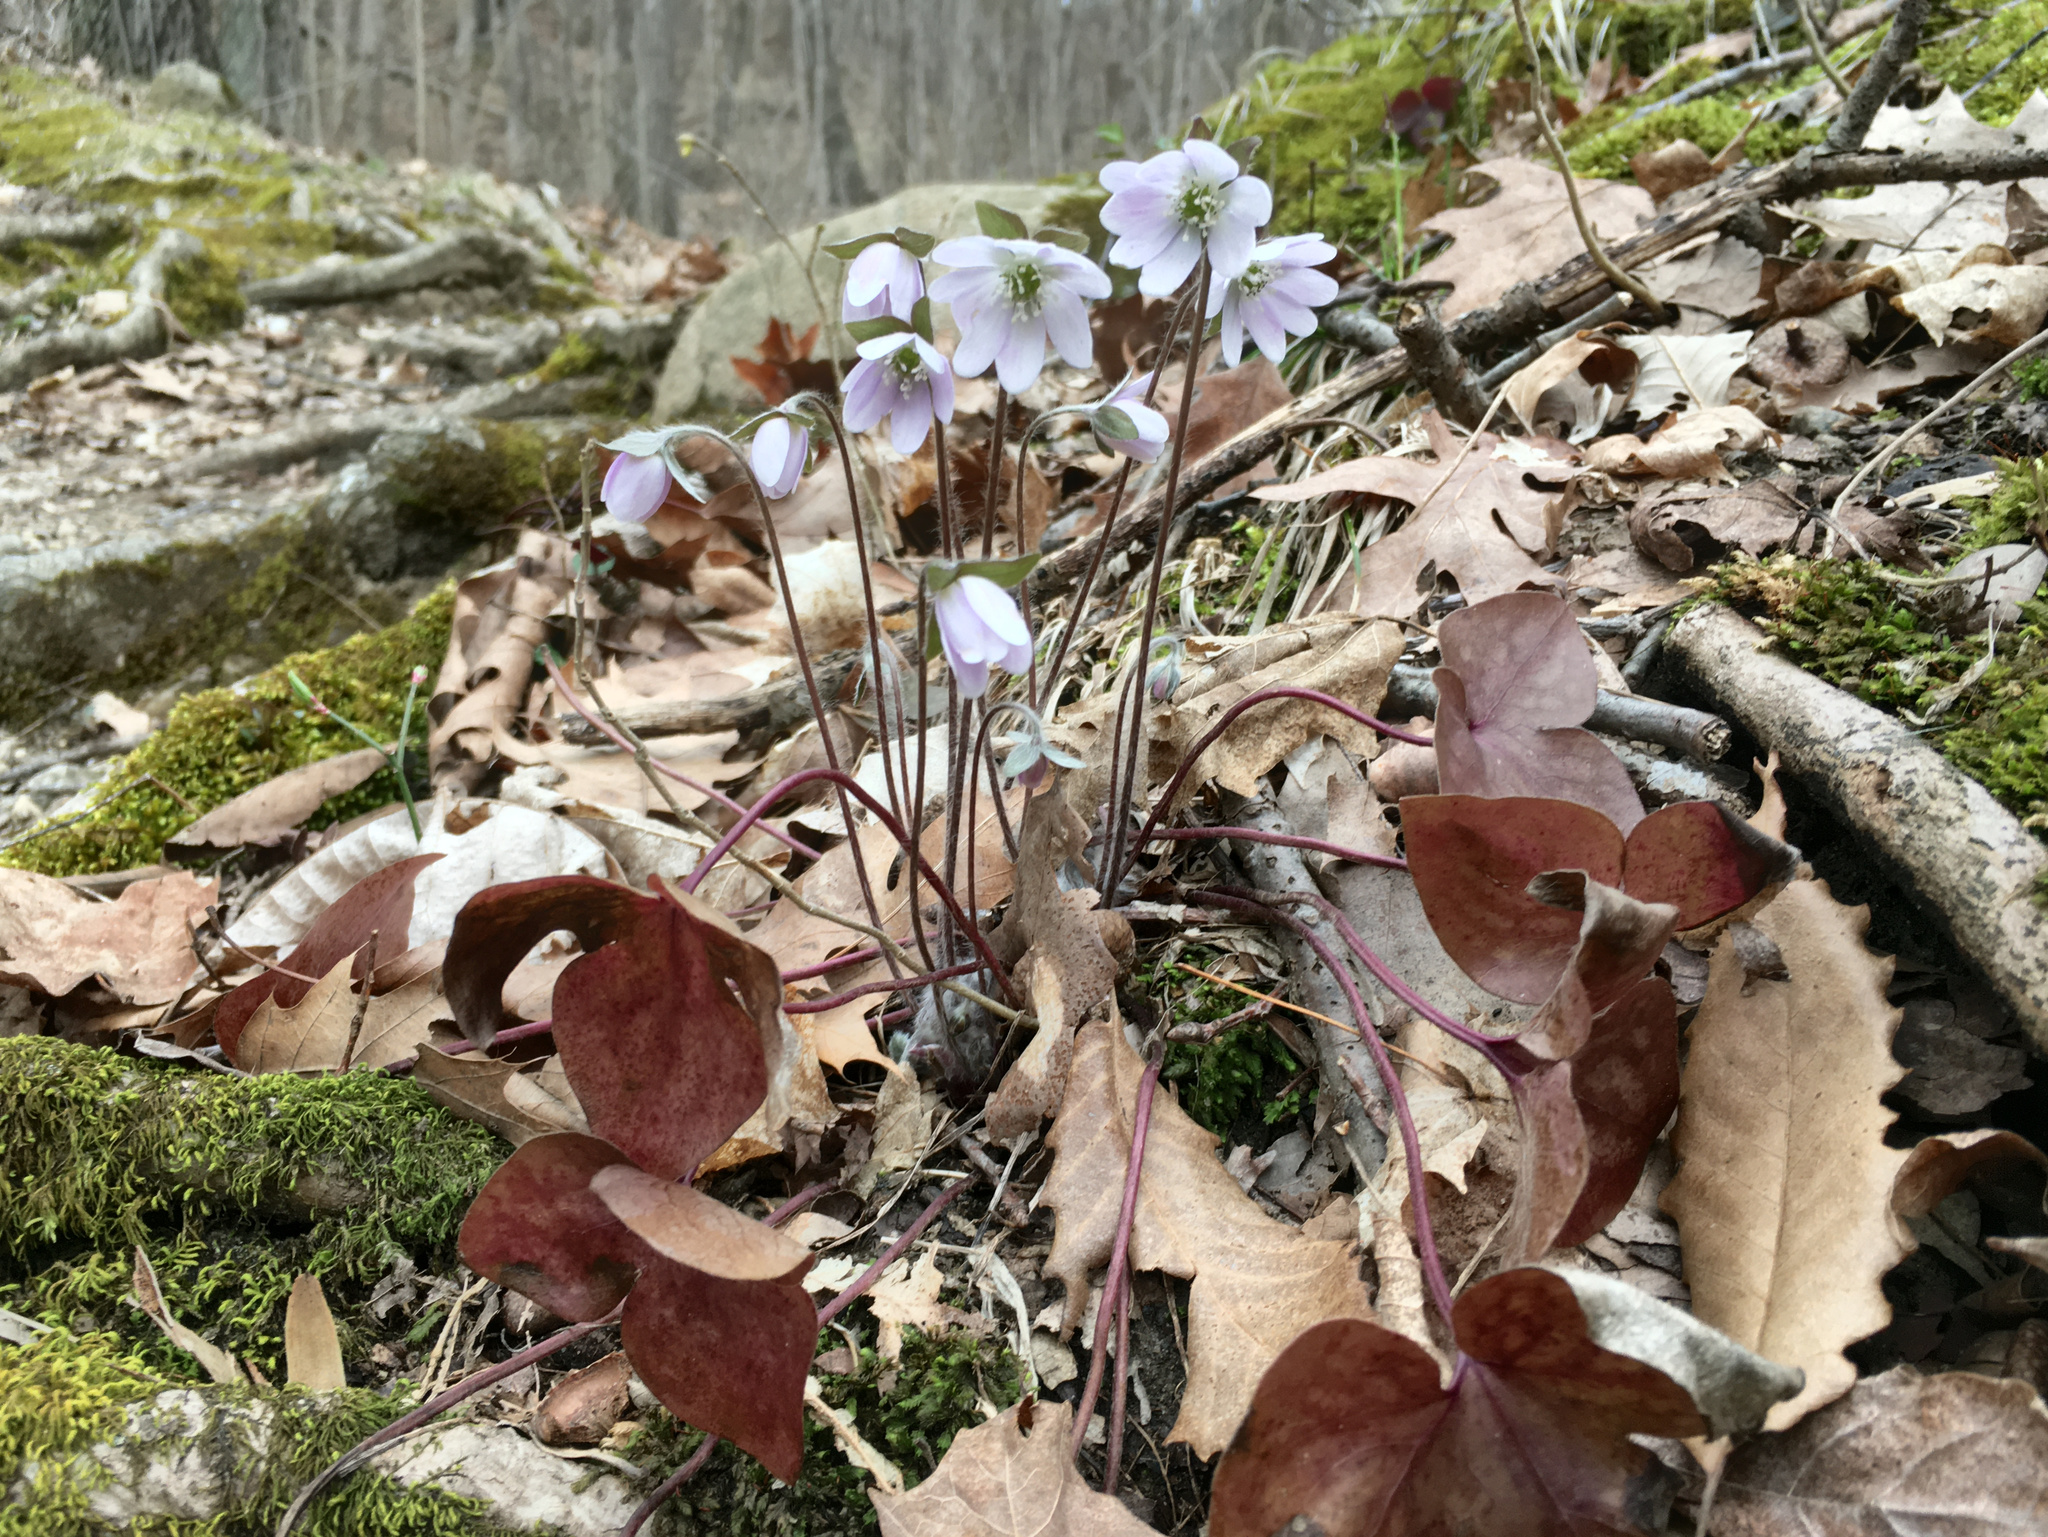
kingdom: Plantae
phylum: Tracheophyta
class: Magnoliopsida
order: Ranunculales
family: Ranunculaceae
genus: Hepatica
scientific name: Hepatica acutiloba
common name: Sharp-lobed hepatica
